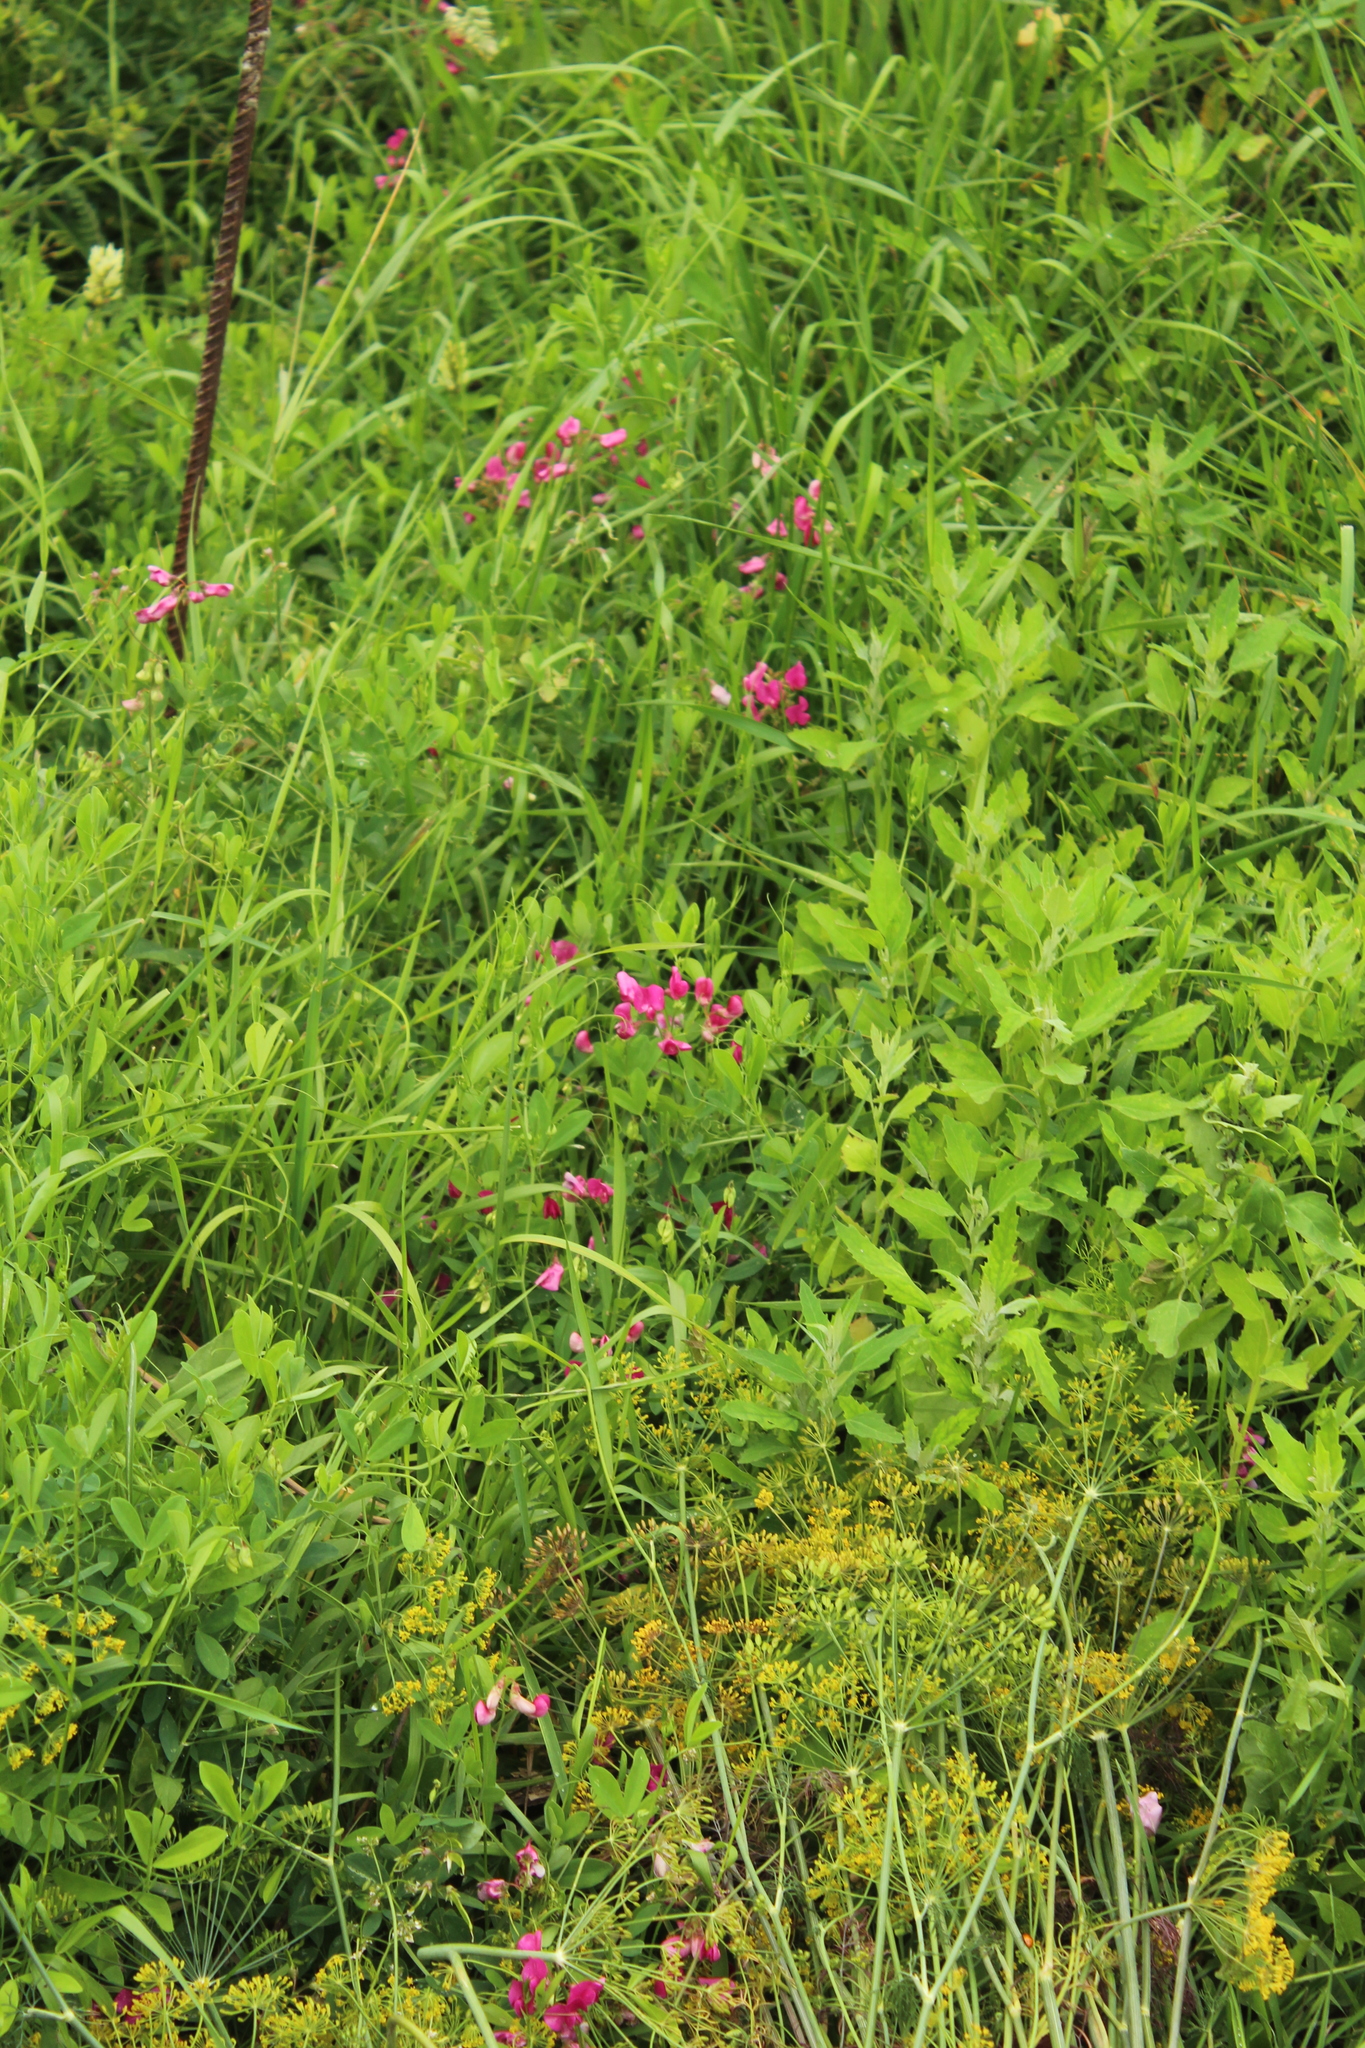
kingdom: Plantae
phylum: Tracheophyta
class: Magnoliopsida
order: Fabales
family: Fabaceae
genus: Lathyrus
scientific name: Lathyrus tuberosus
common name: Tuberous pea
